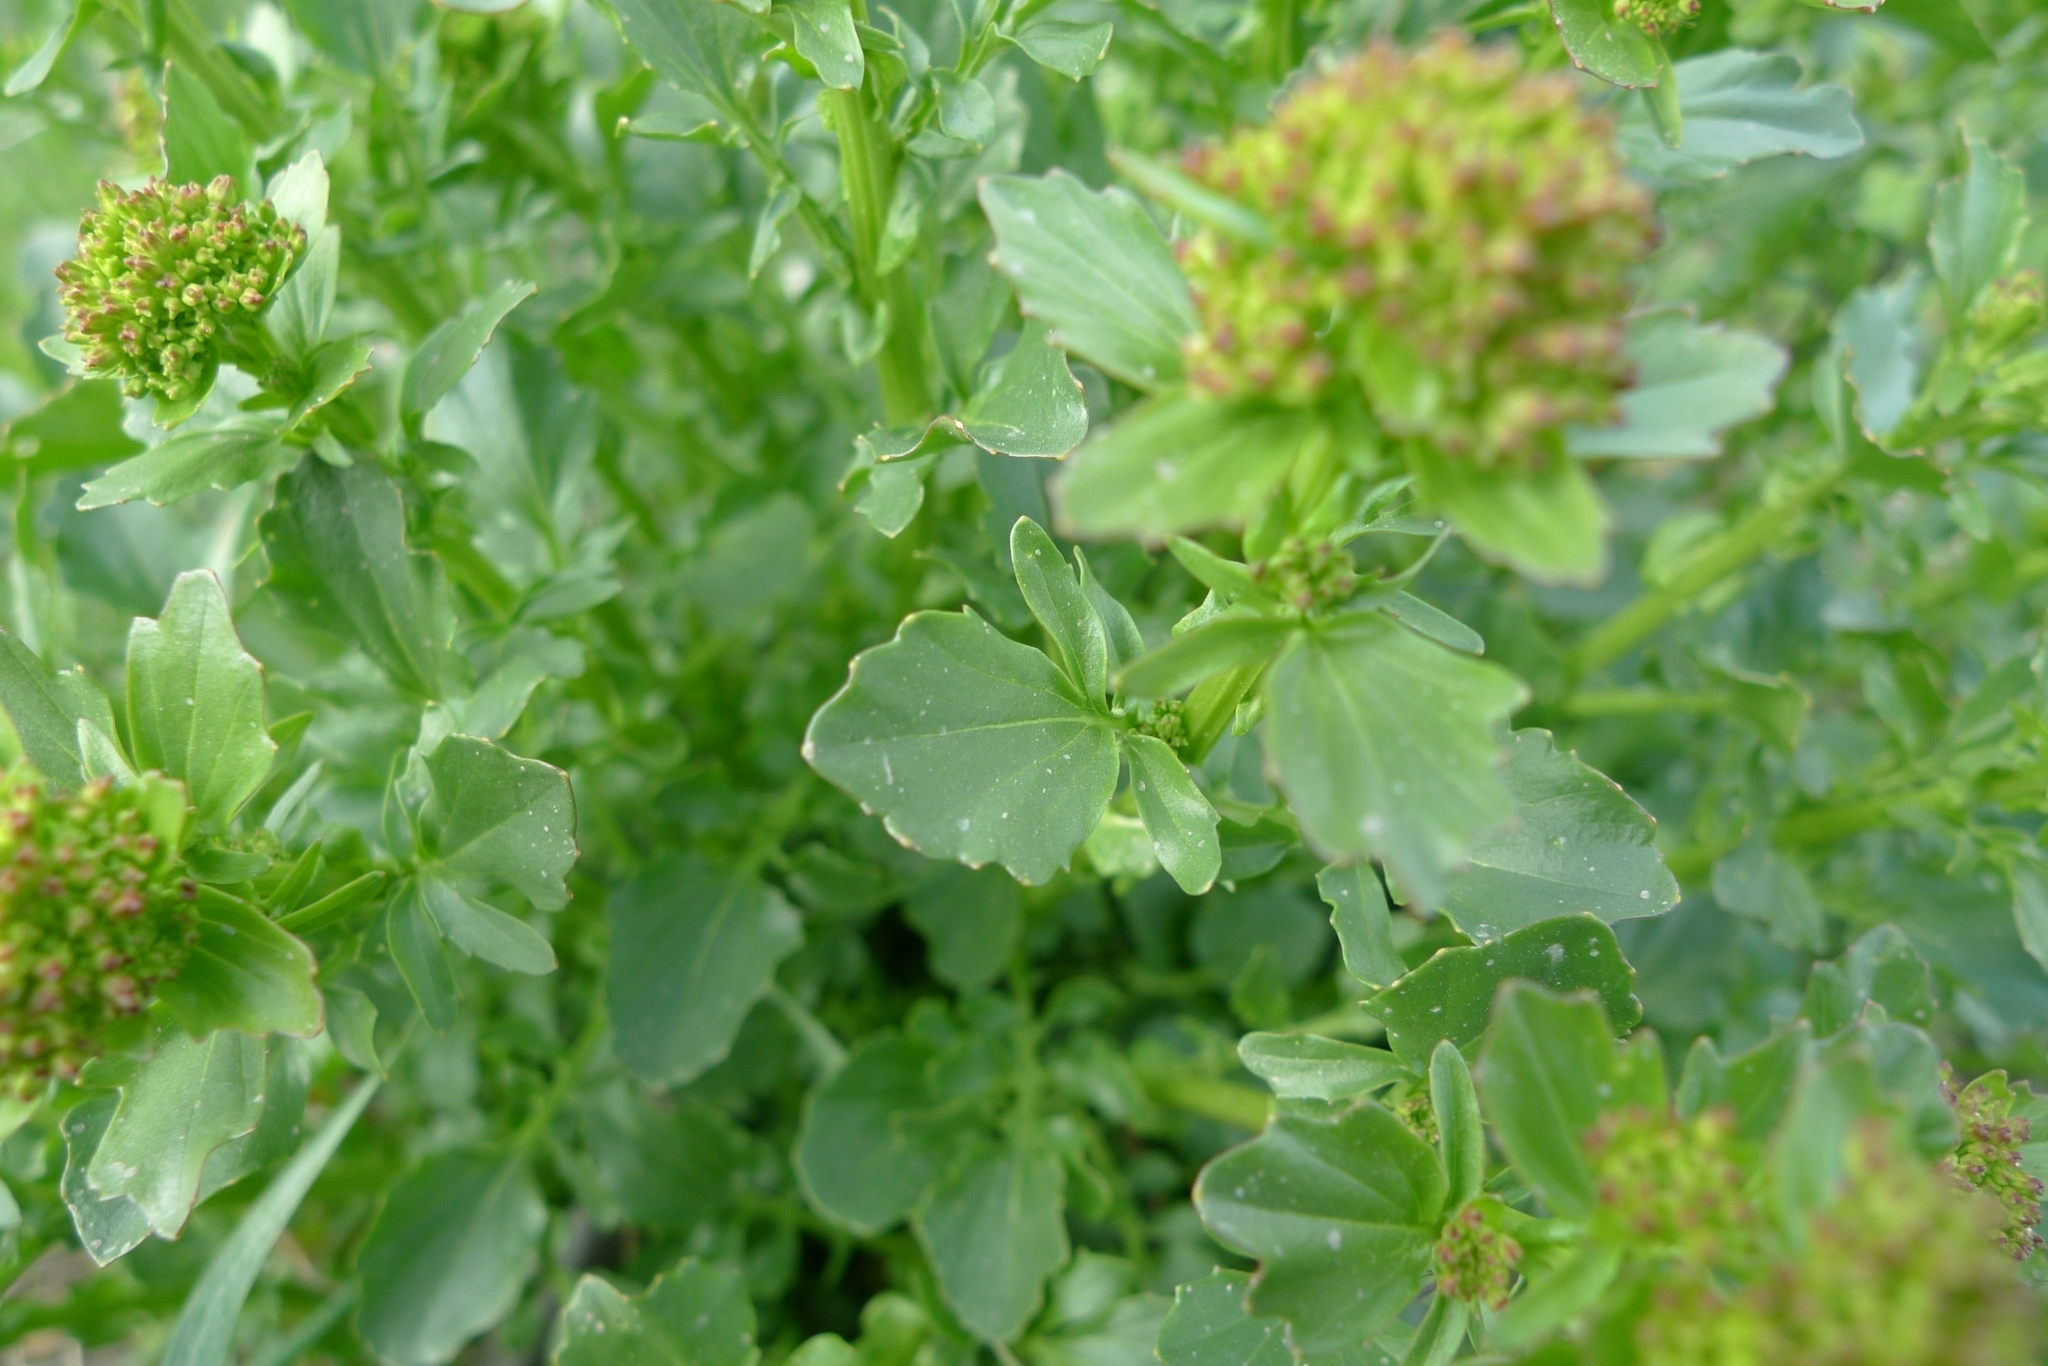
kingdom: Plantae
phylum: Tracheophyta
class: Magnoliopsida
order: Brassicales
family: Brassicaceae
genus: Barbarea
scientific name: Barbarea vulgaris
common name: Cressy-greens
